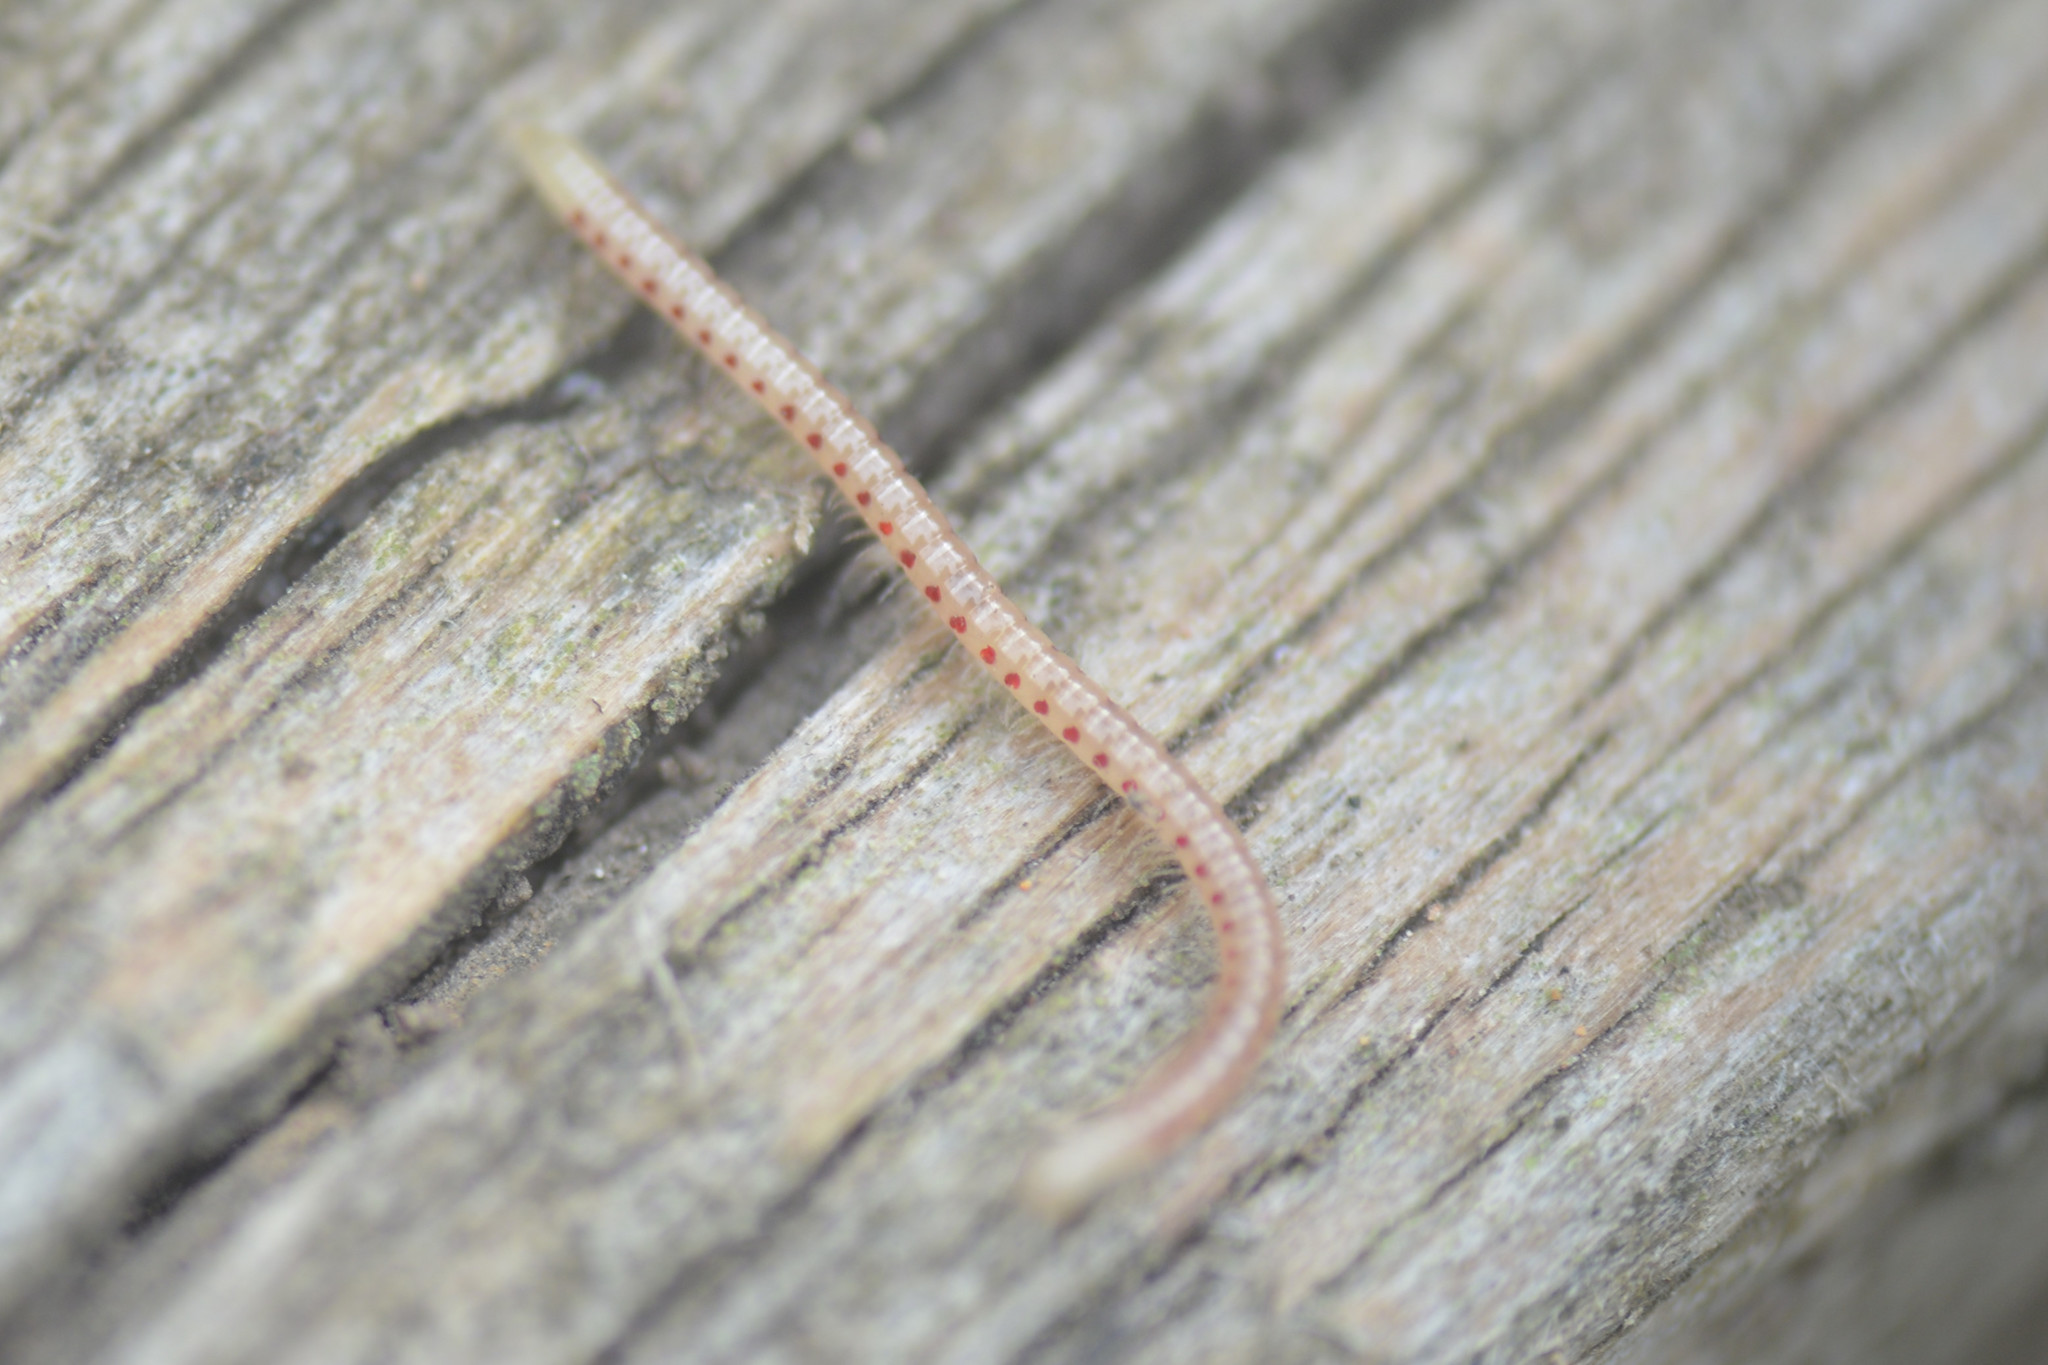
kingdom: Animalia
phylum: Arthropoda
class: Diplopoda
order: Julida
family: Blaniulidae
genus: Blaniulus
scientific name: Blaniulus guttulatus
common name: Spotted snake millipede
